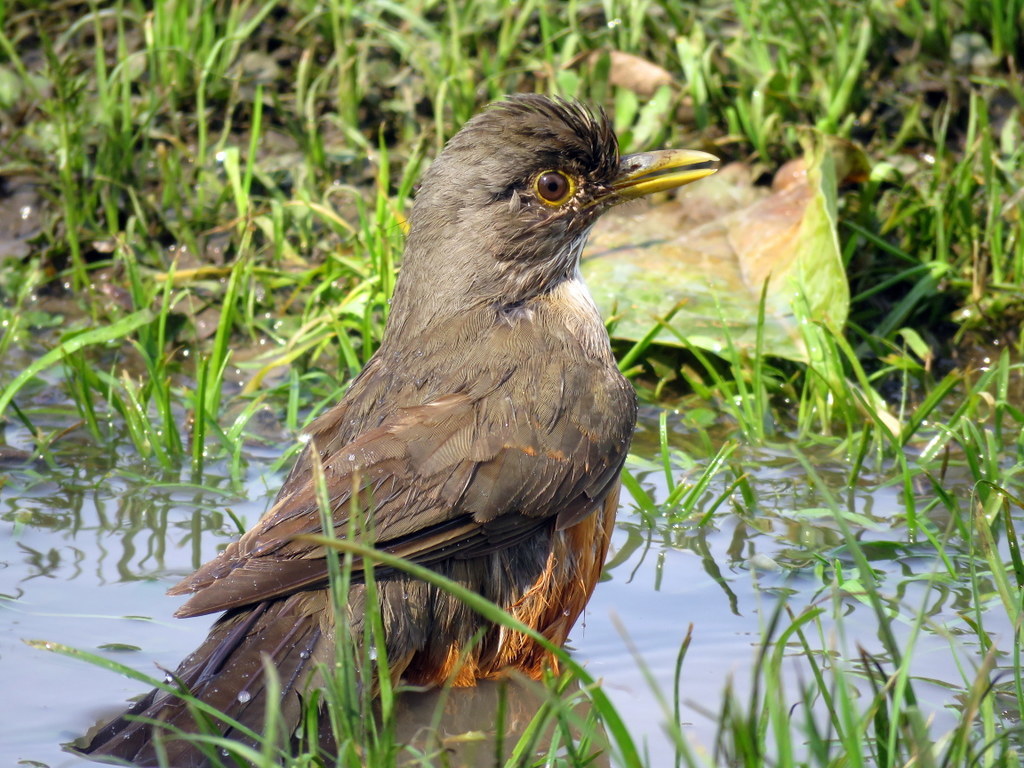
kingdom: Animalia
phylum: Chordata
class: Aves
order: Passeriformes
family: Turdidae
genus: Turdus
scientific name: Turdus rufiventris
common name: Rufous-bellied thrush
